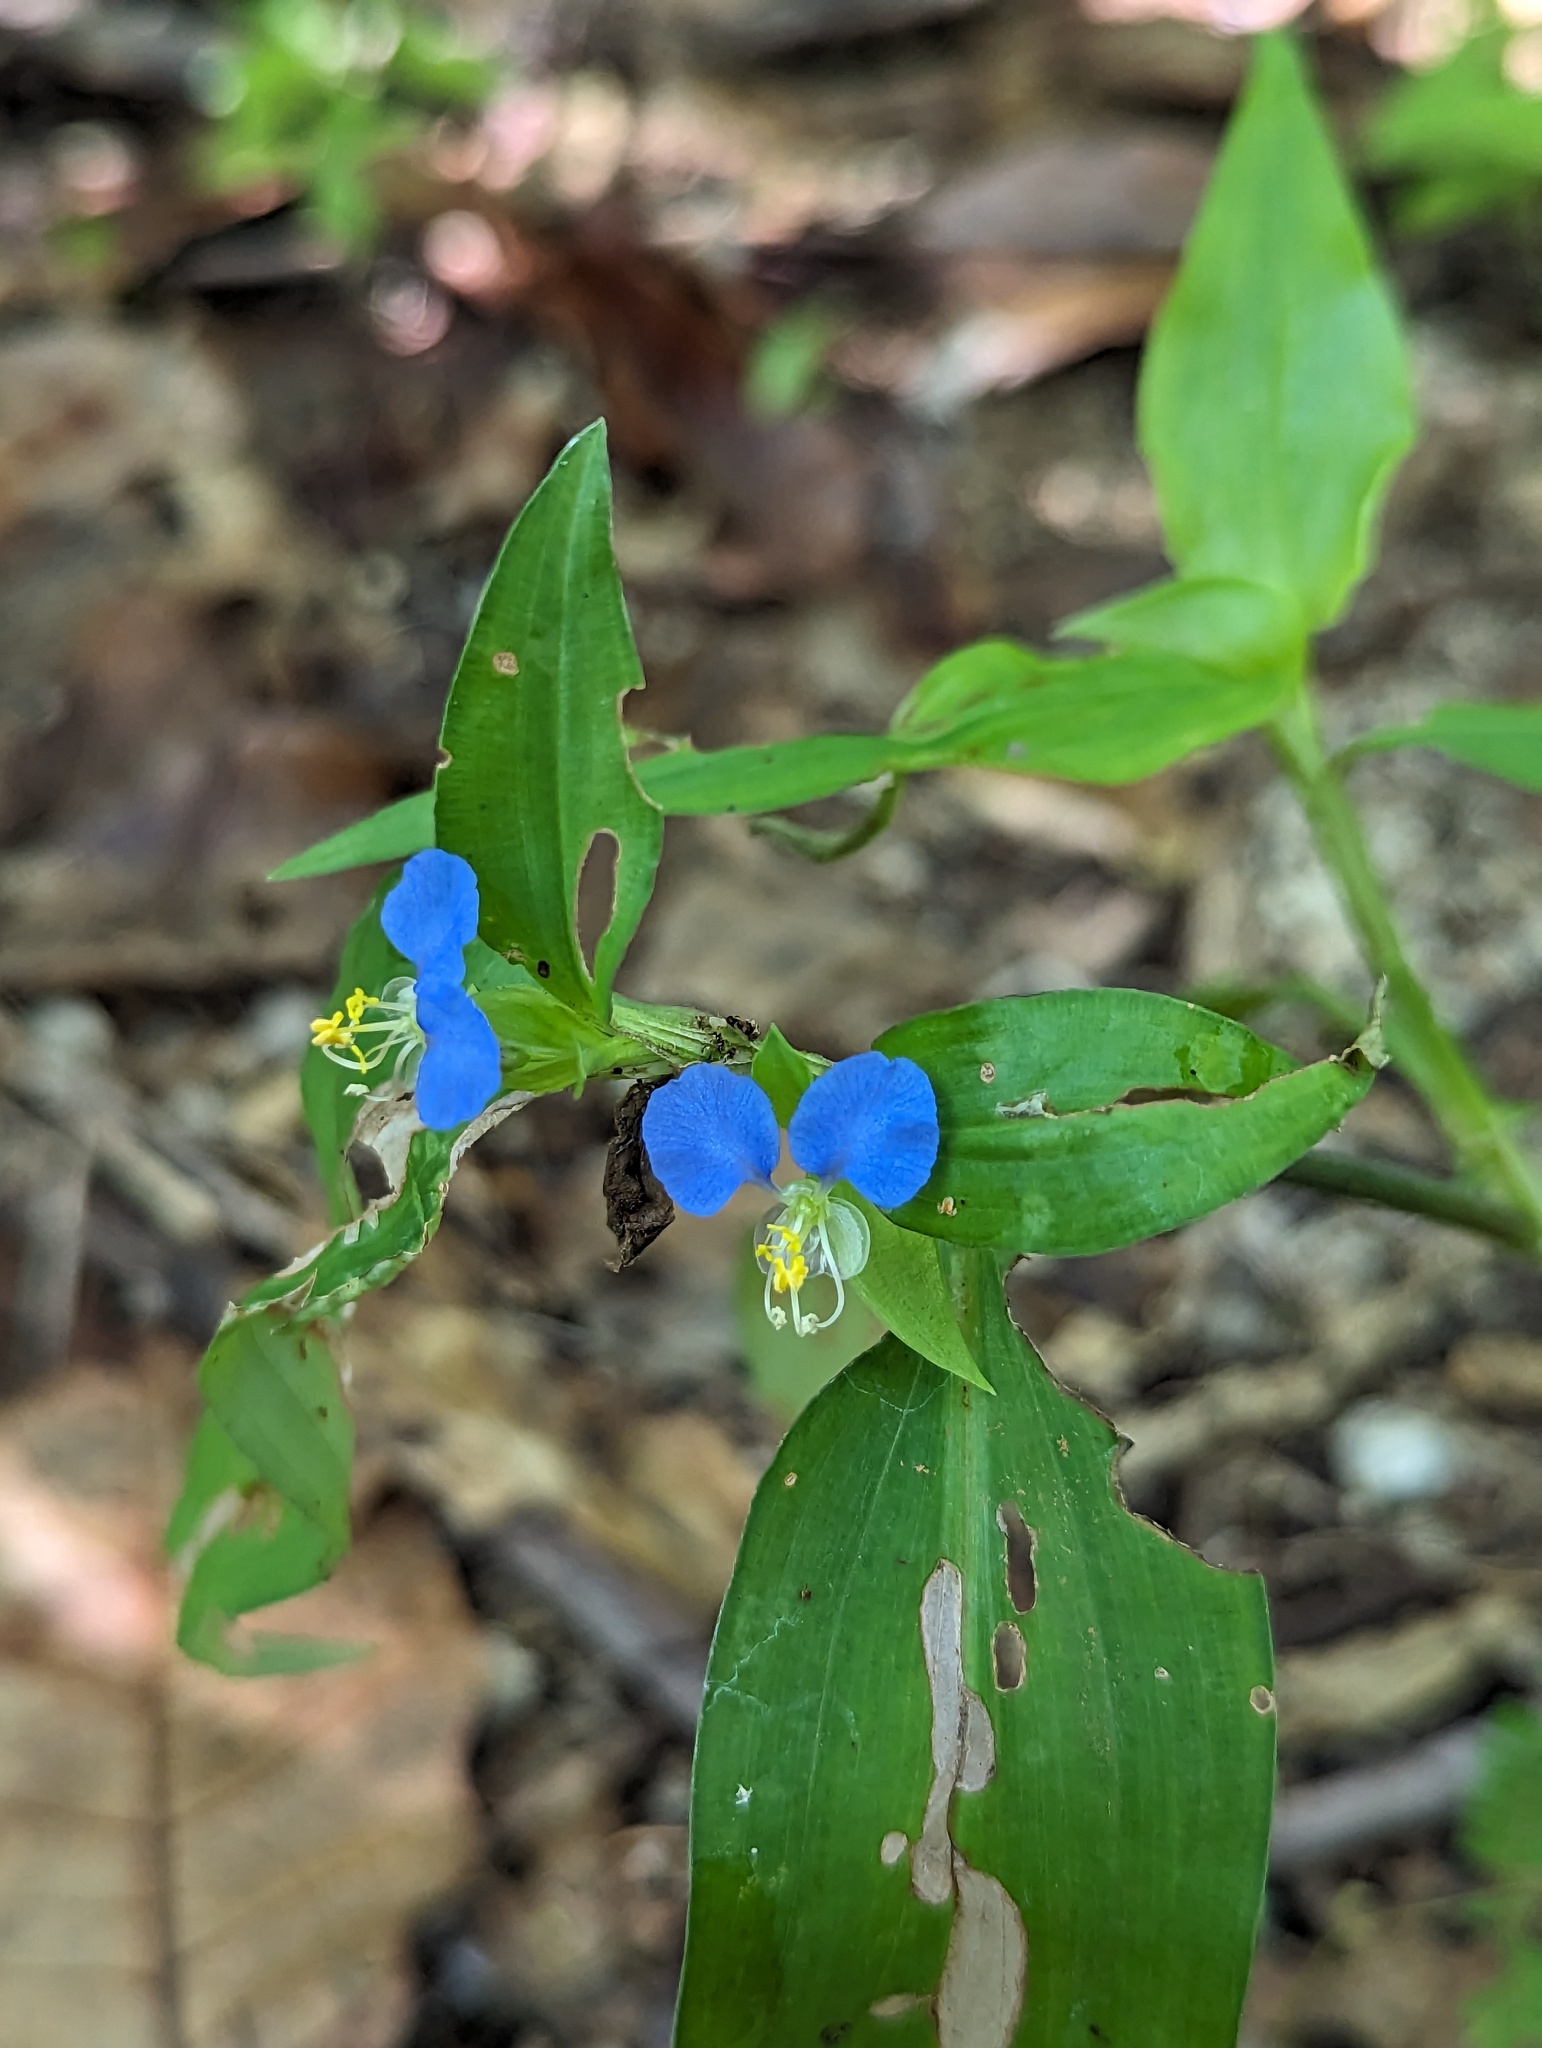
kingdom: Plantae
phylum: Tracheophyta
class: Liliopsida
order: Commelinales
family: Commelinaceae
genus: Commelina
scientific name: Commelina erecta
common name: Blousel blommetjie
